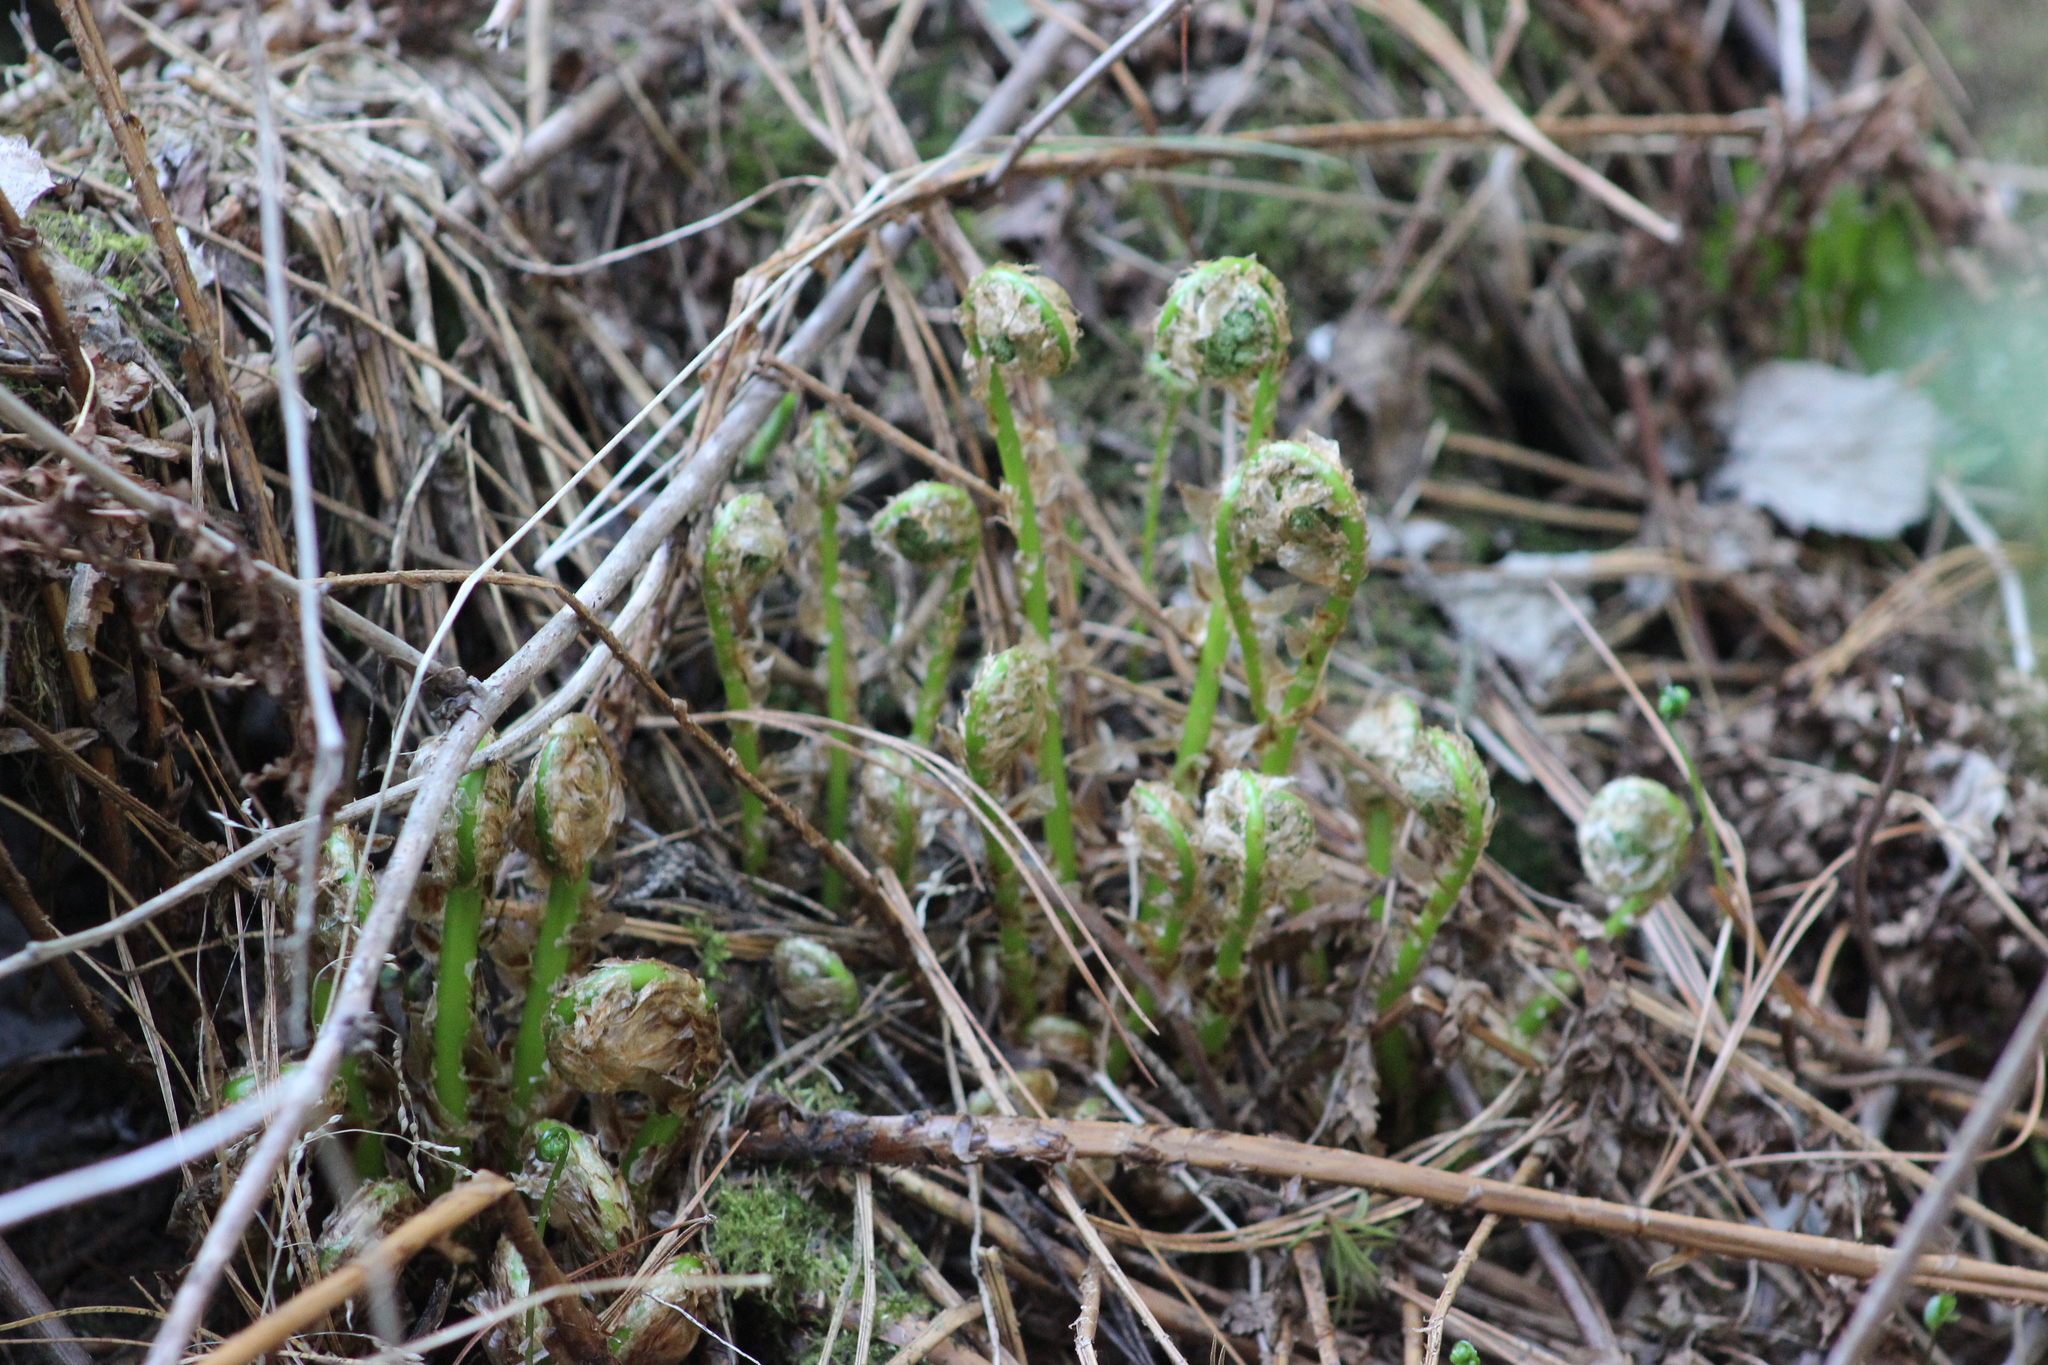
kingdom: Plantae
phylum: Tracheophyta
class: Polypodiopsida
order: Polypodiales
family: Dryopteridaceae
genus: Dryopteris
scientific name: Dryopteris expansa
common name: Northern buckler fern
